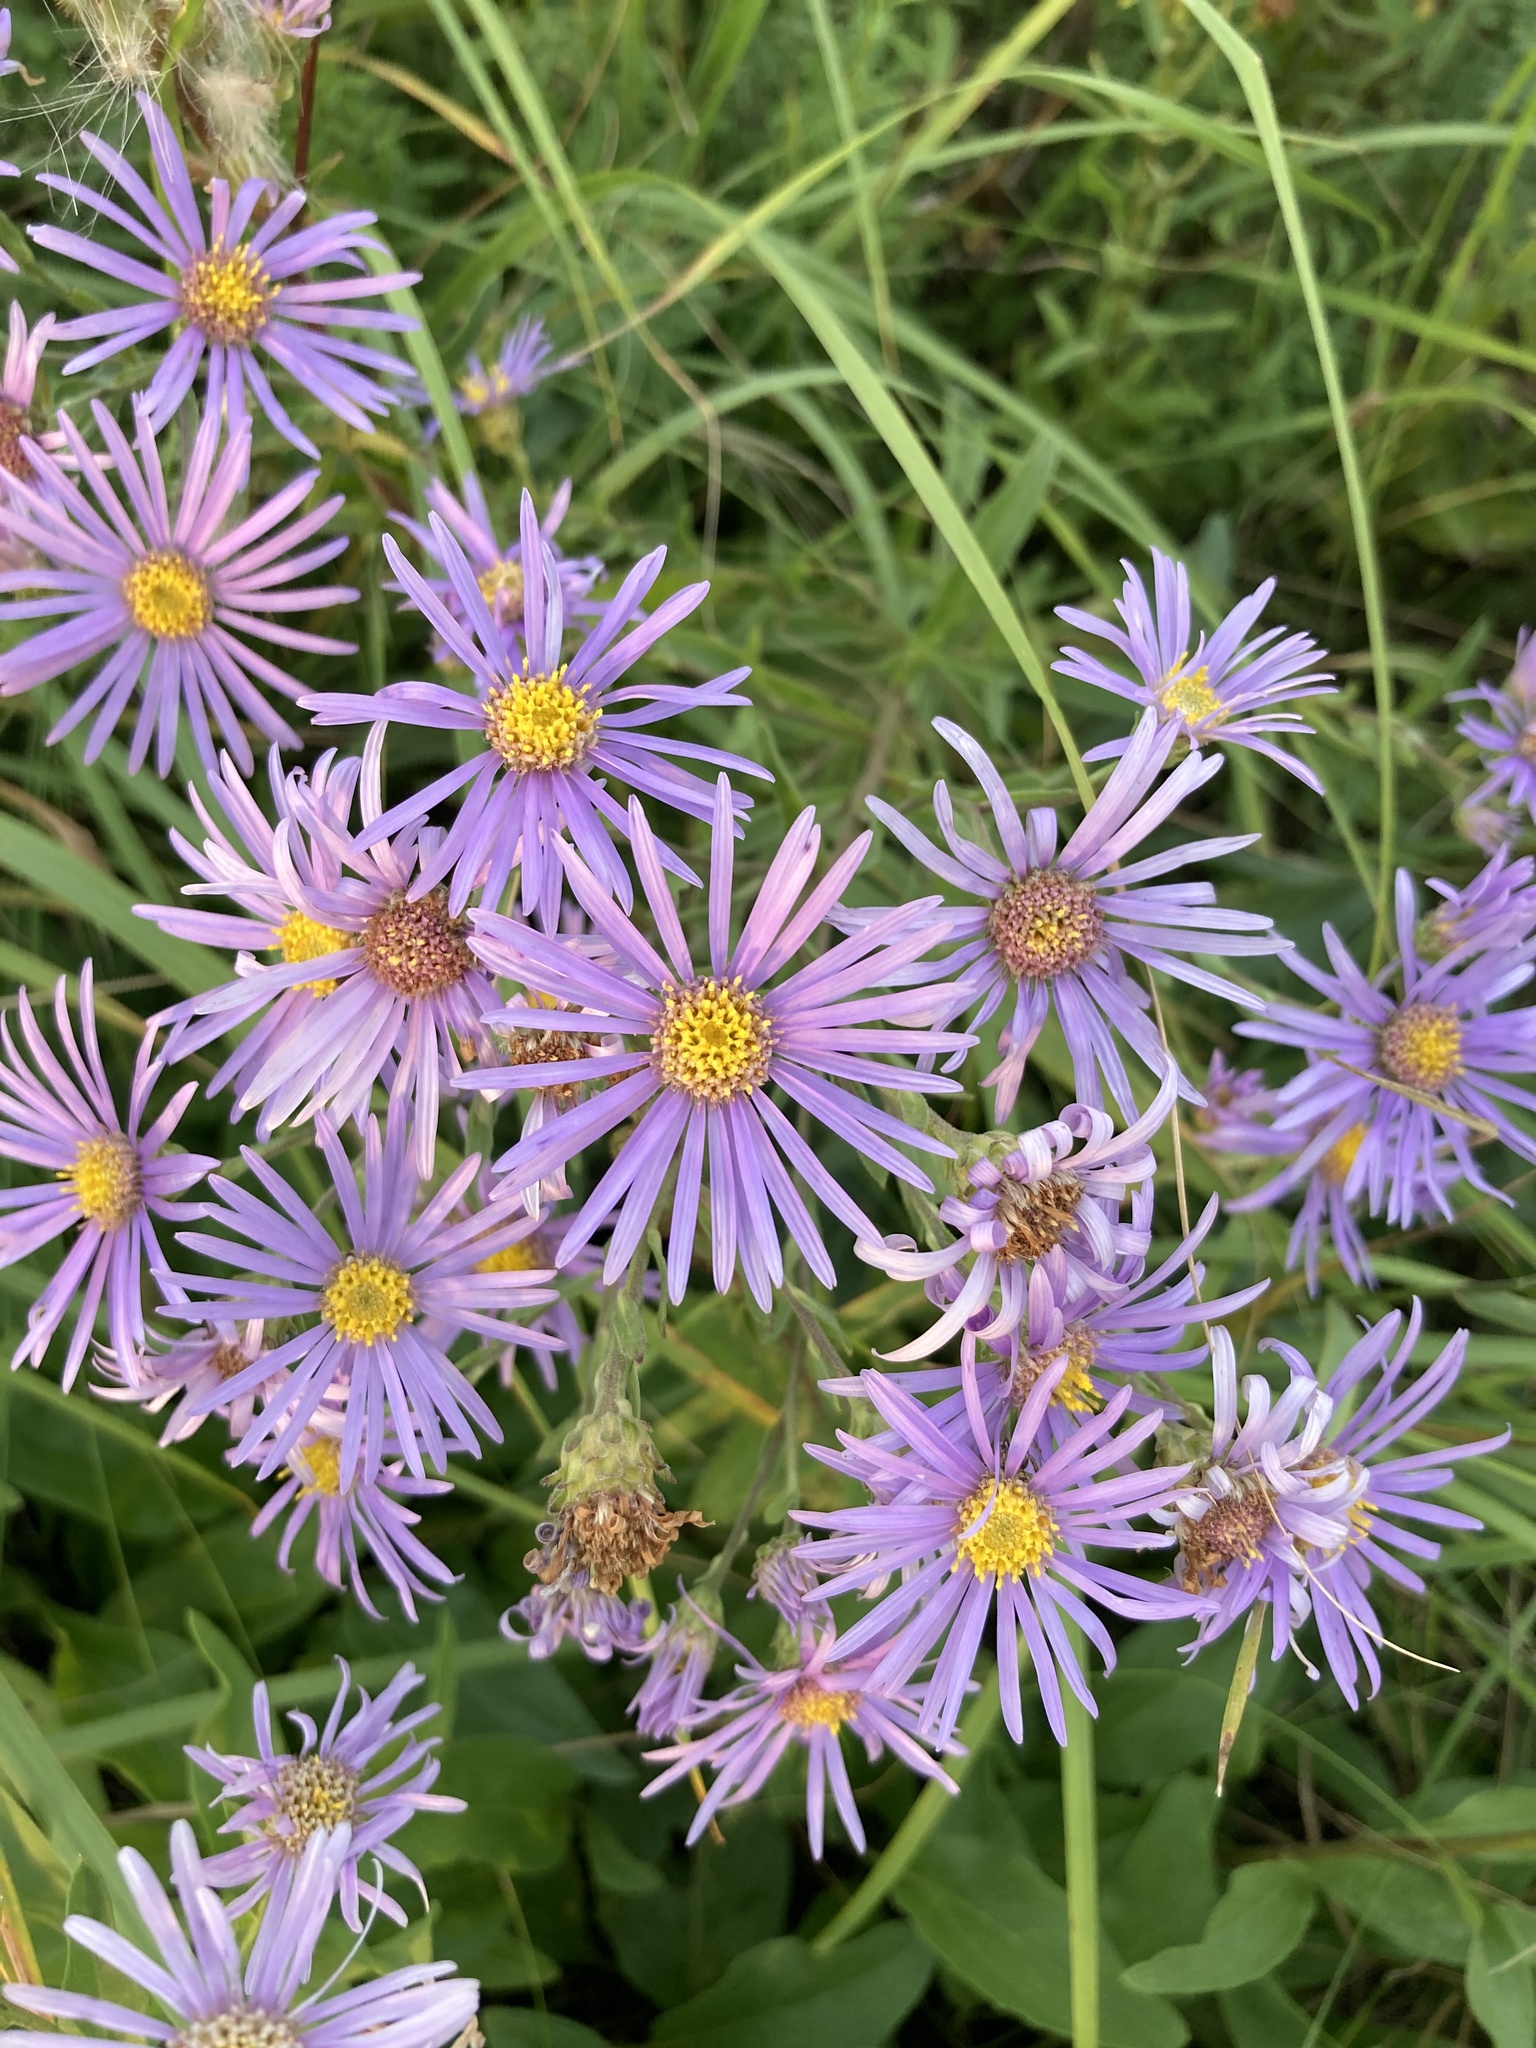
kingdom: Plantae
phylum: Tracheophyta
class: Magnoliopsida
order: Asterales
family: Asteraceae
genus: Aster
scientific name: Aster amellus
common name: European michaelmas daisy
